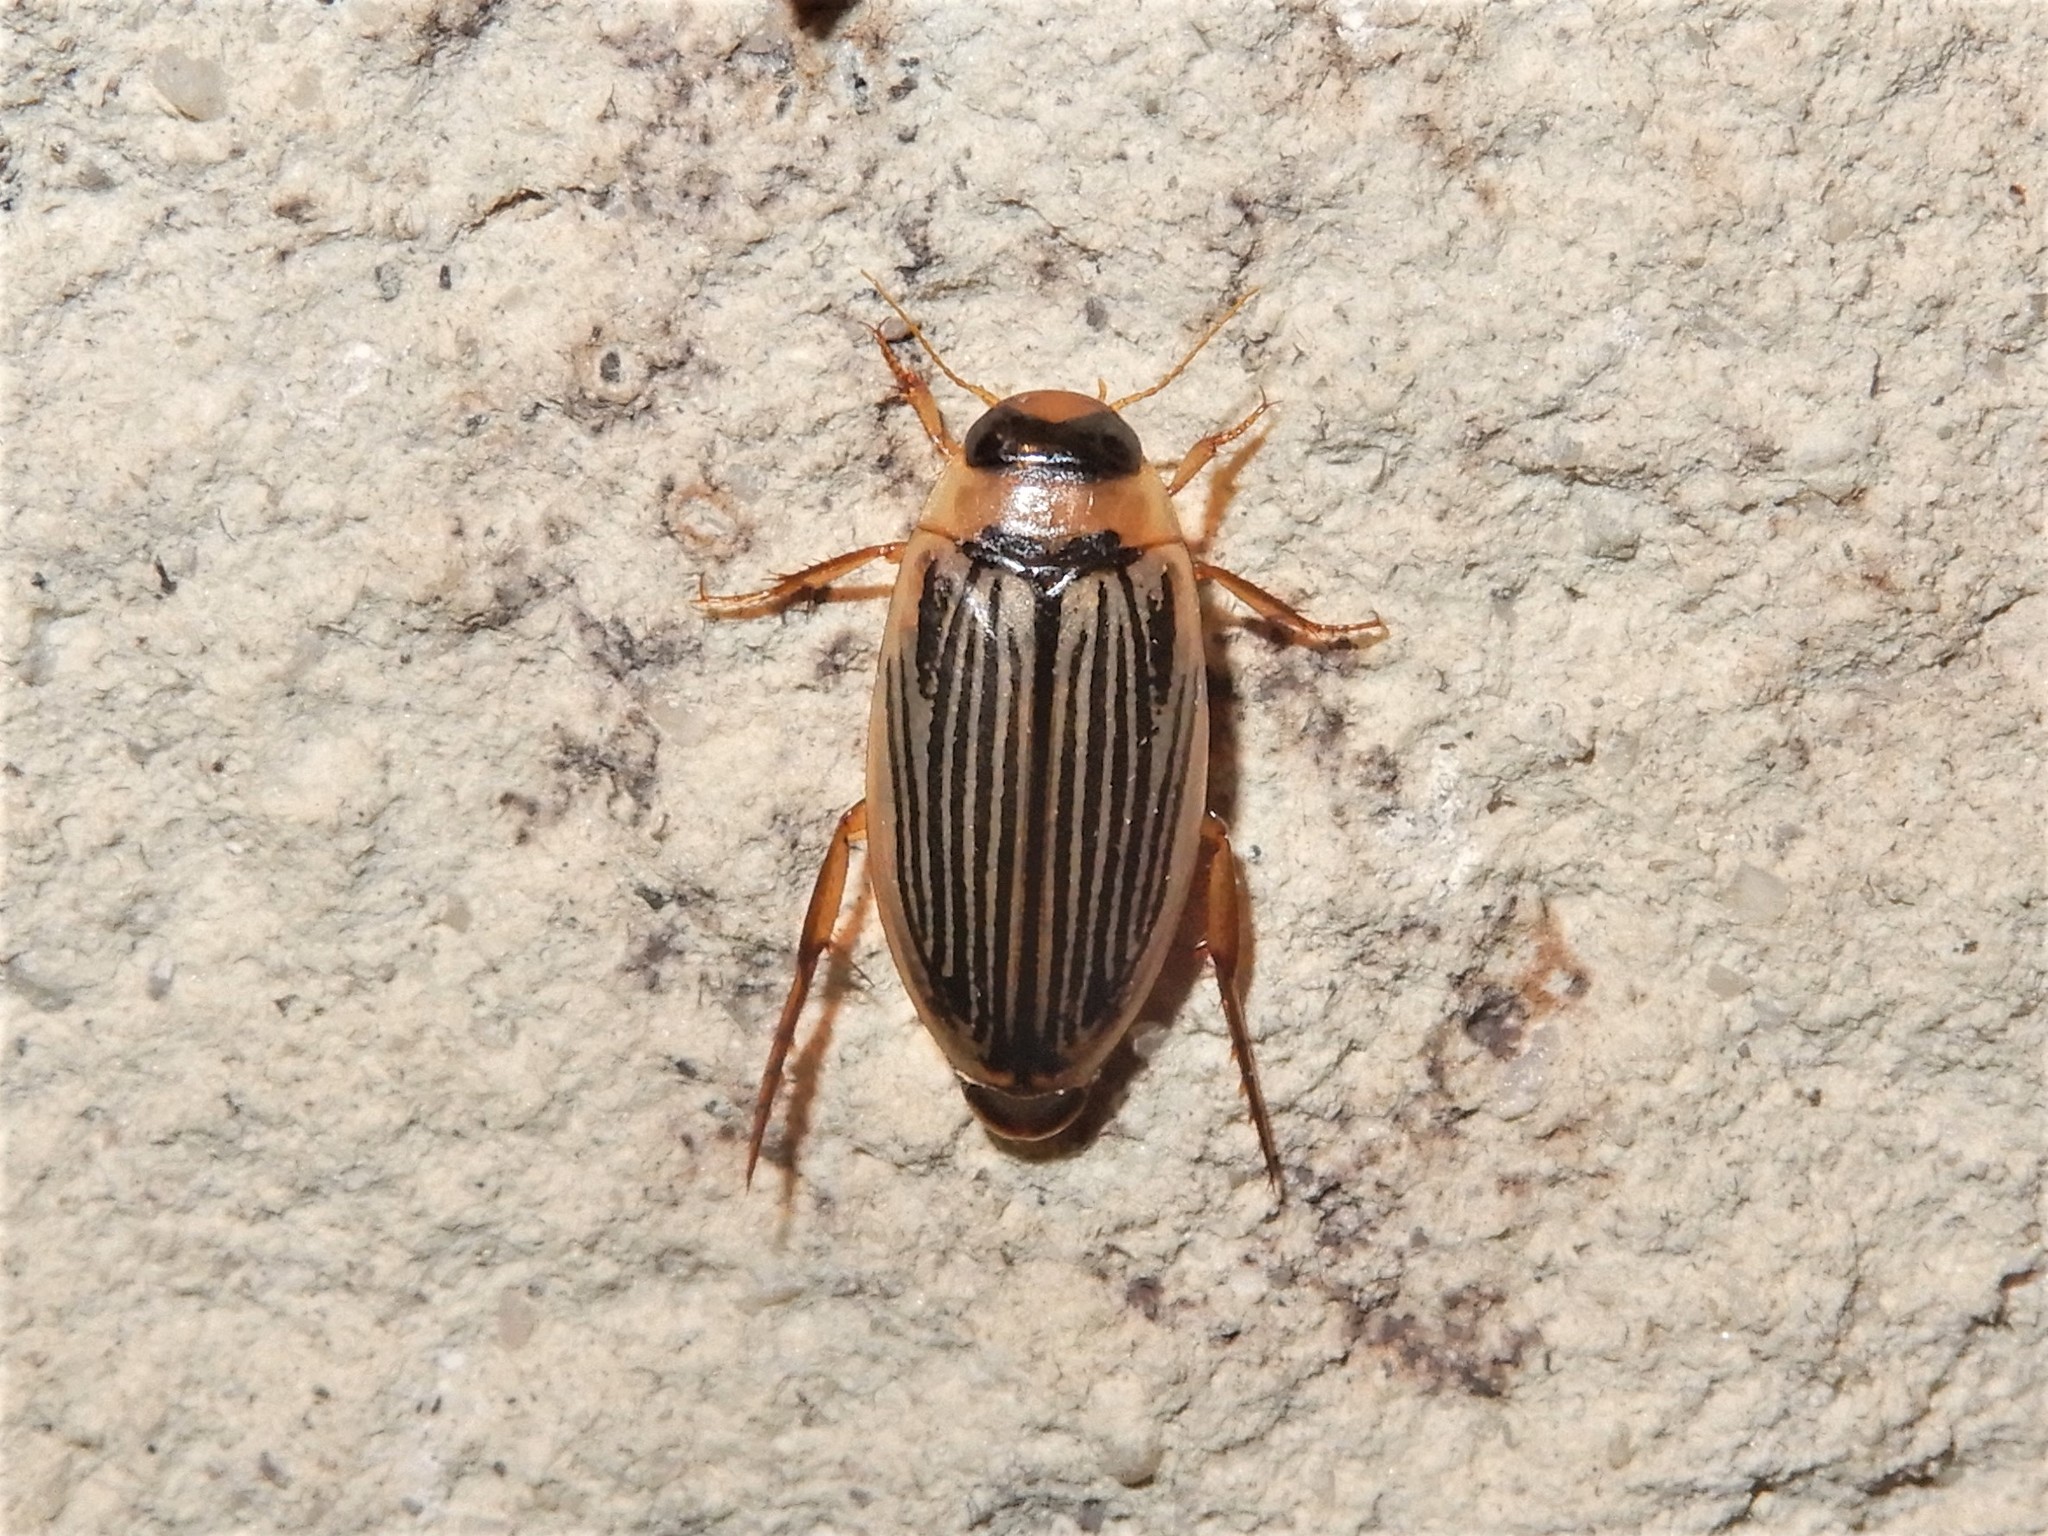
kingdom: Animalia
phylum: Arthropoda
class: Insecta
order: Coleoptera
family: Dytiscidae
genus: Lancetes
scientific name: Lancetes lanceolatus
